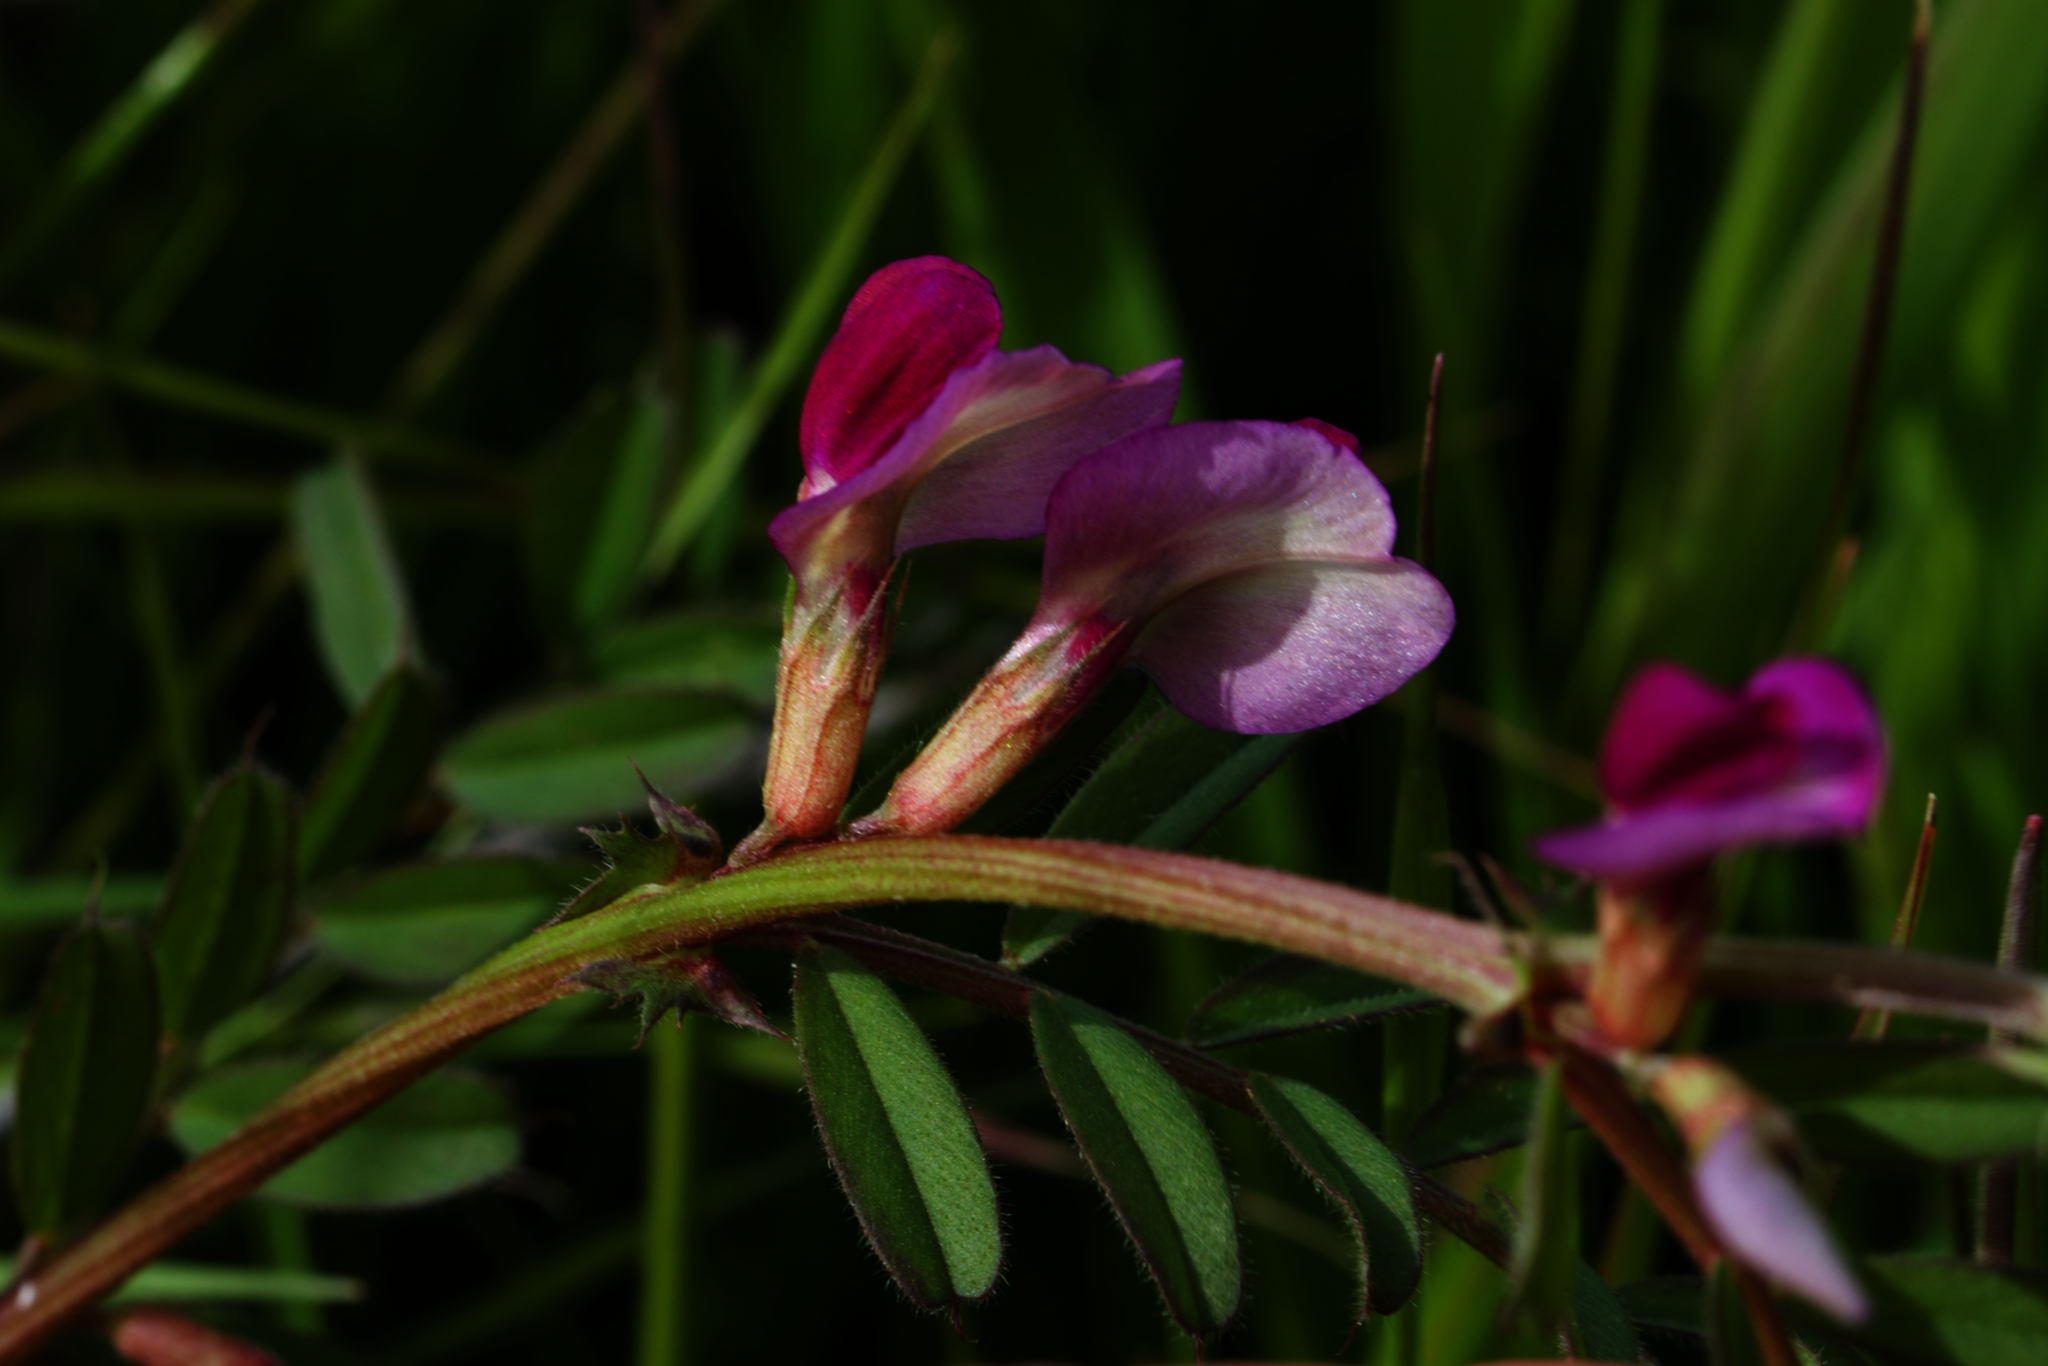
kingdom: Plantae
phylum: Tracheophyta
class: Magnoliopsida
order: Fabales
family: Fabaceae
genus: Vicia
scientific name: Vicia sativa
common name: Garden vetch
